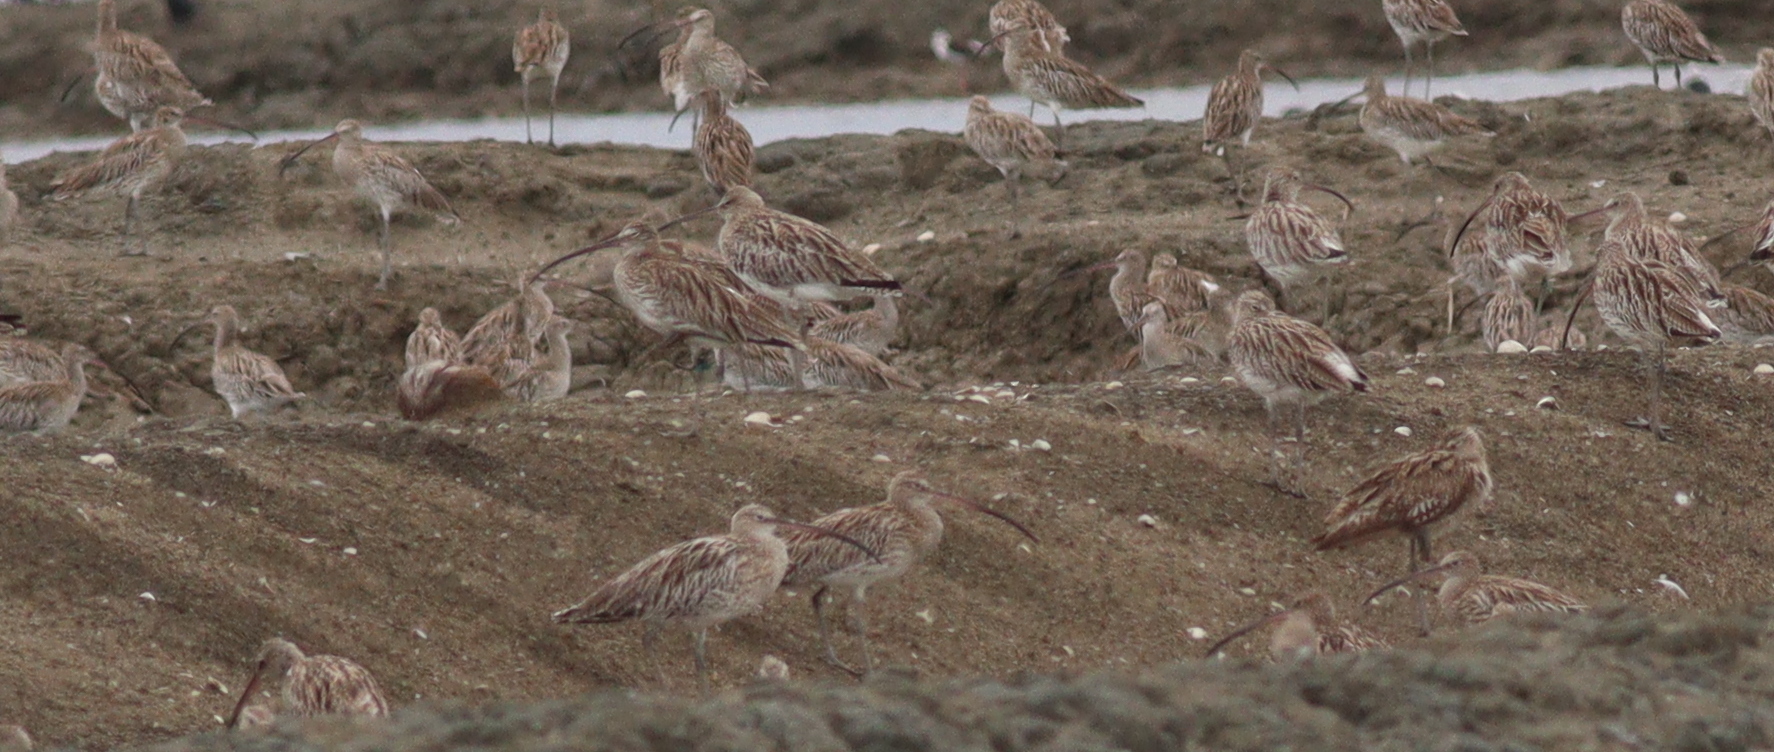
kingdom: Animalia
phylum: Chordata
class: Aves
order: Charadriiformes
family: Scolopacidae
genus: Numenius
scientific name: Numenius arquata
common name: Eurasian curlew
